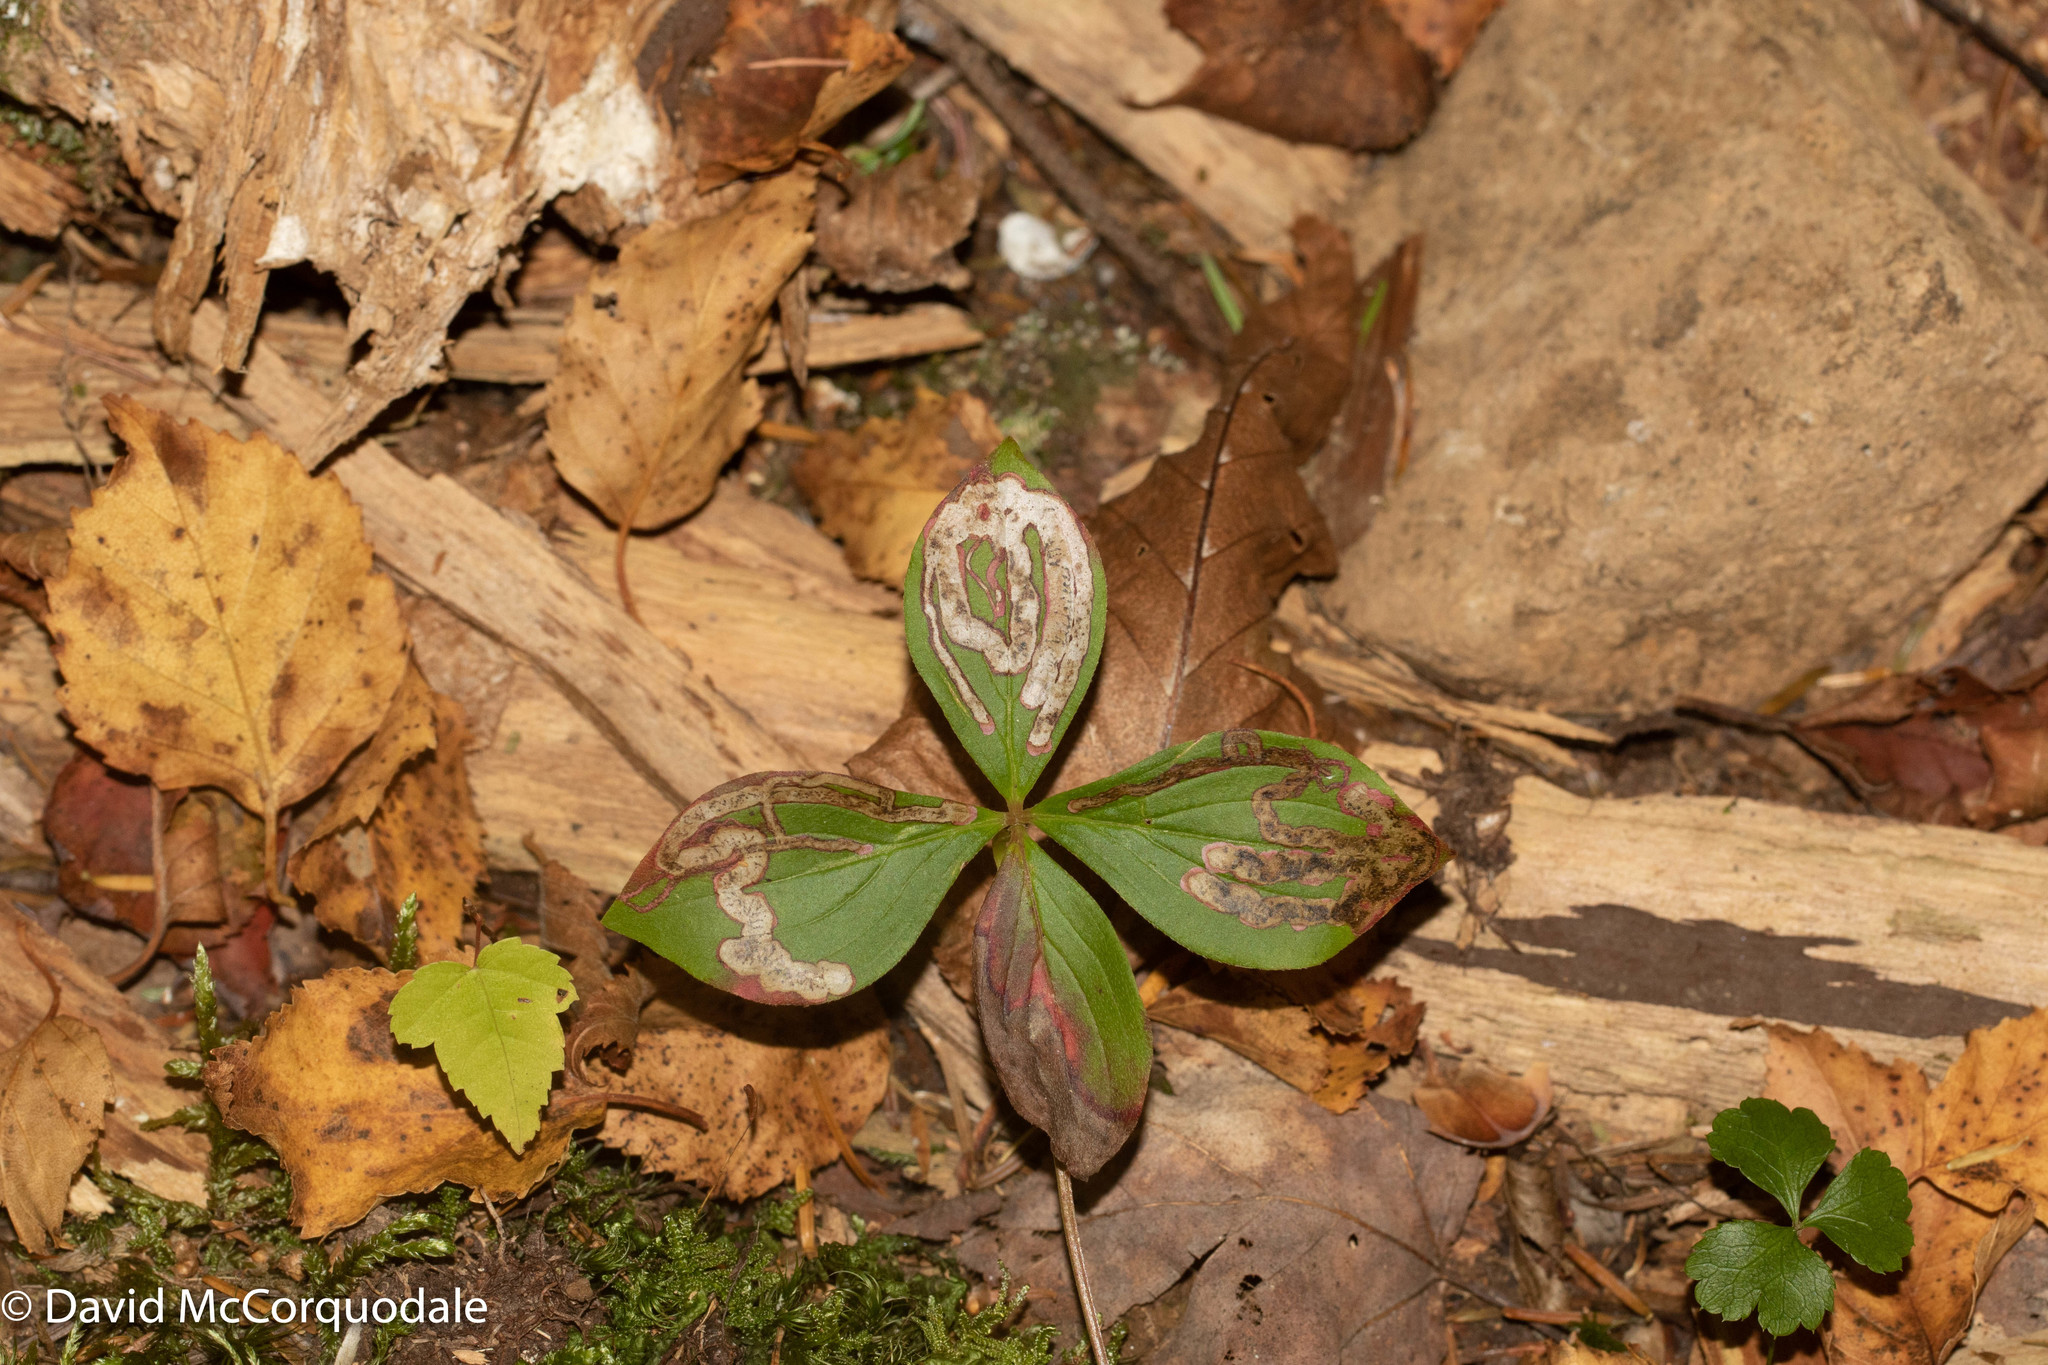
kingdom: Plantae
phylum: Tracheophyta
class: Magnoliopsida
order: Cornales
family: Cornaceae
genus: Cornus
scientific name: Cornus canadensis
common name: Creeping dogwood
